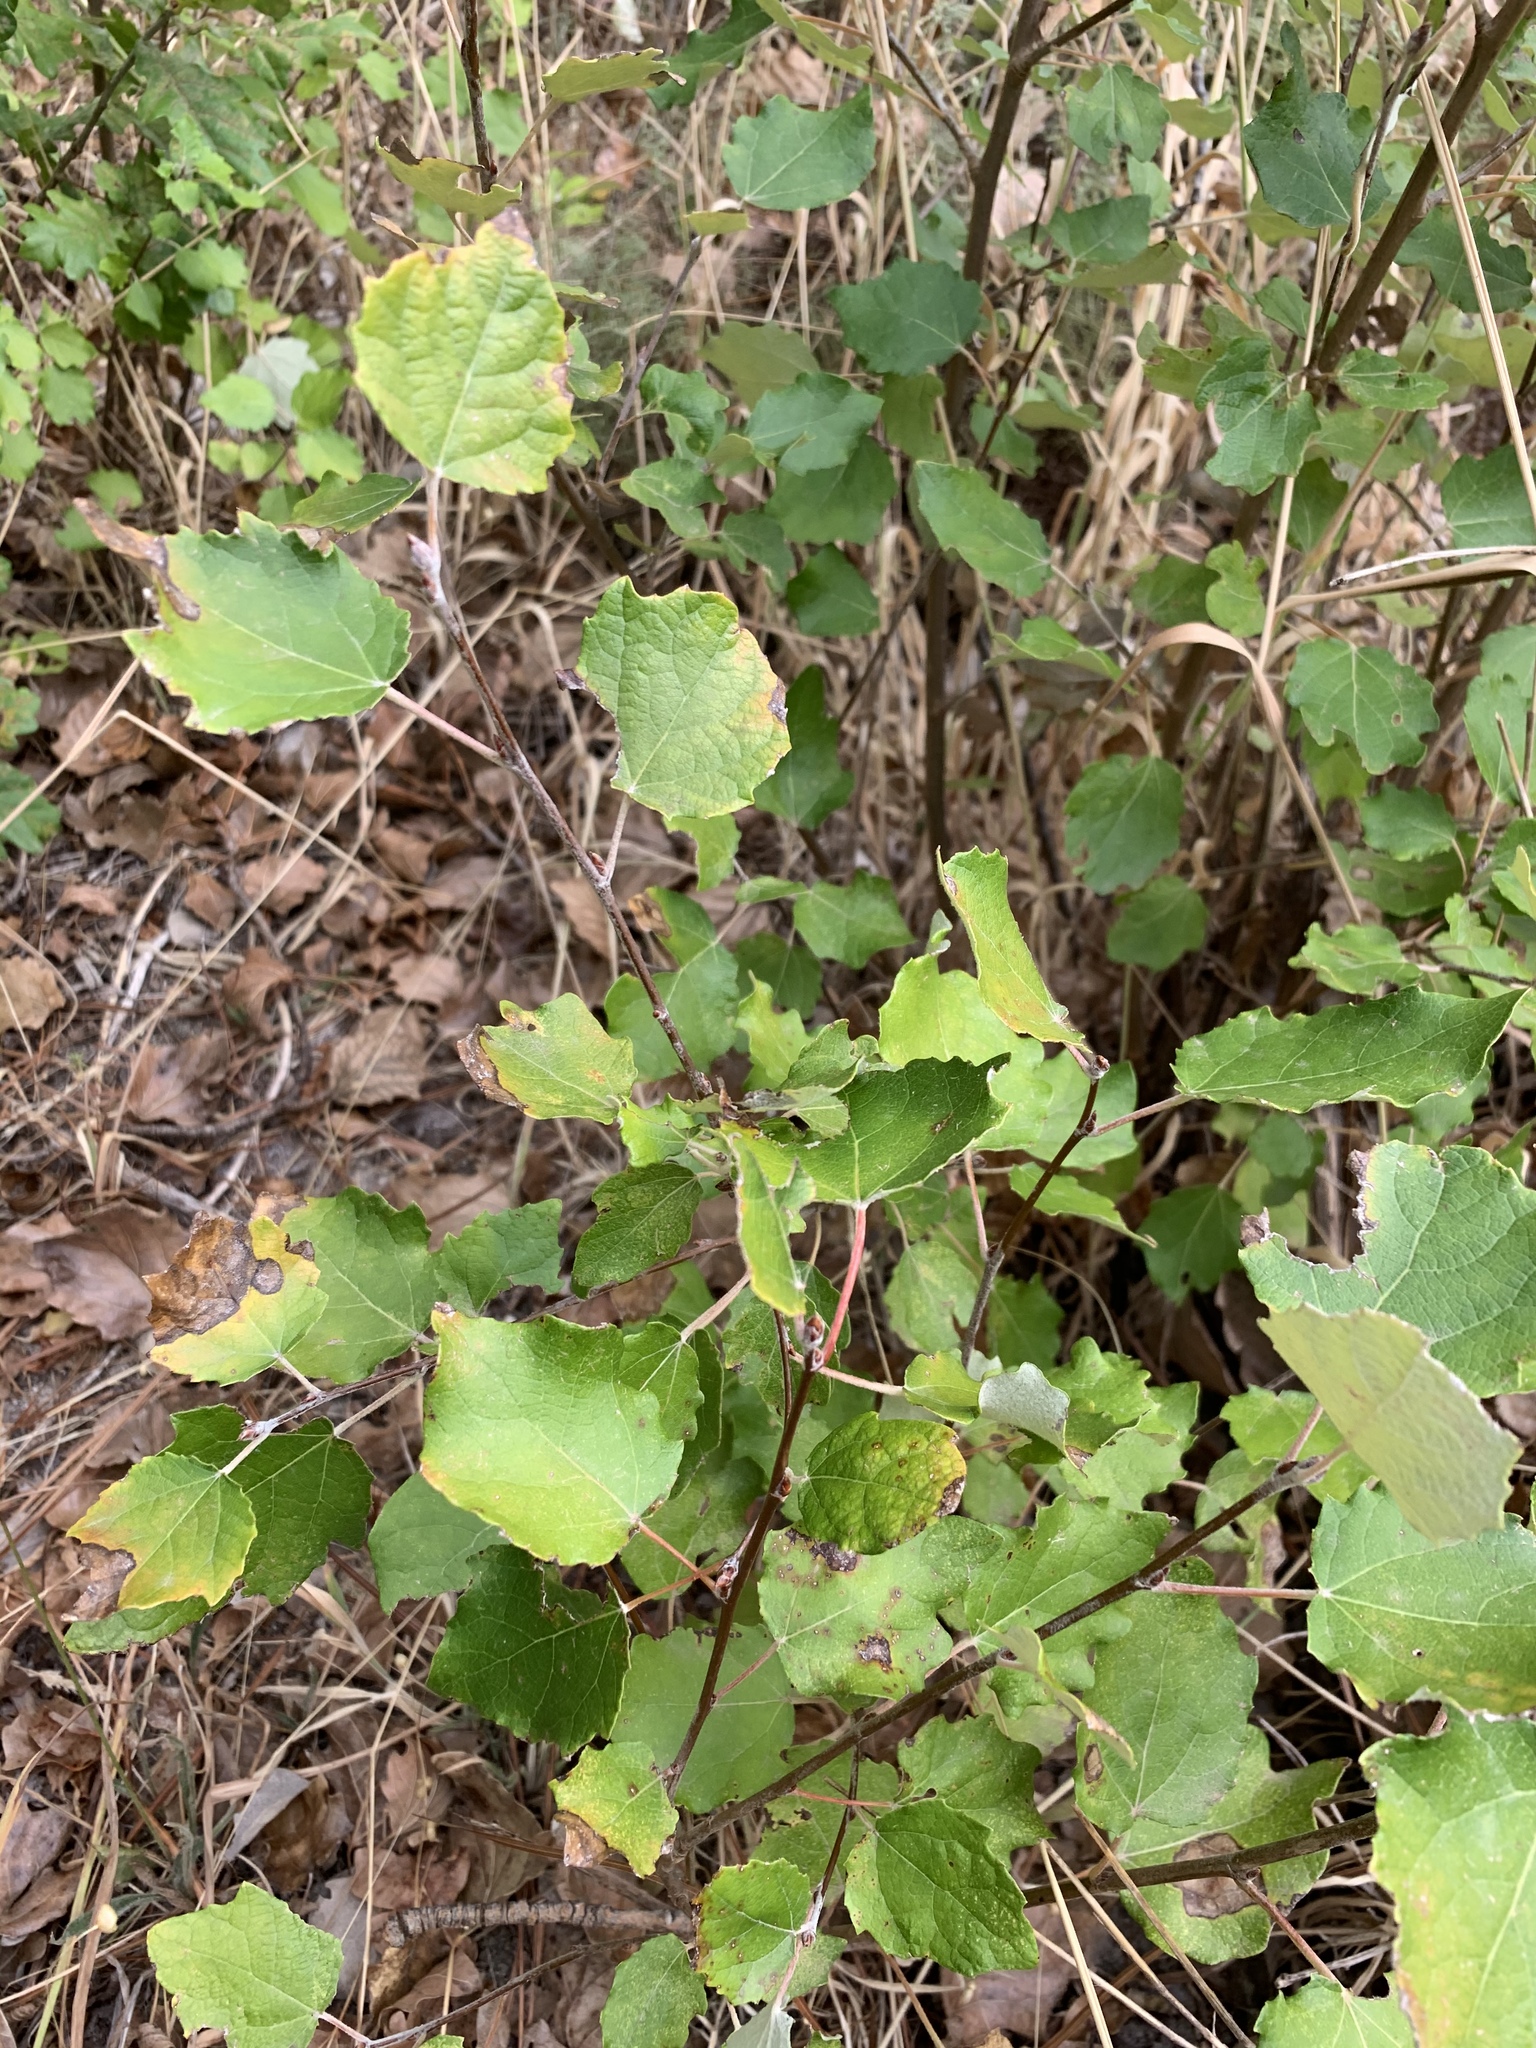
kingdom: Plantae
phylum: Tracheophyta
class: Magnoliopsida
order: Malpighiales
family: Salicaceae
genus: Populus
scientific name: Populus canescens
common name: Gray poplar
